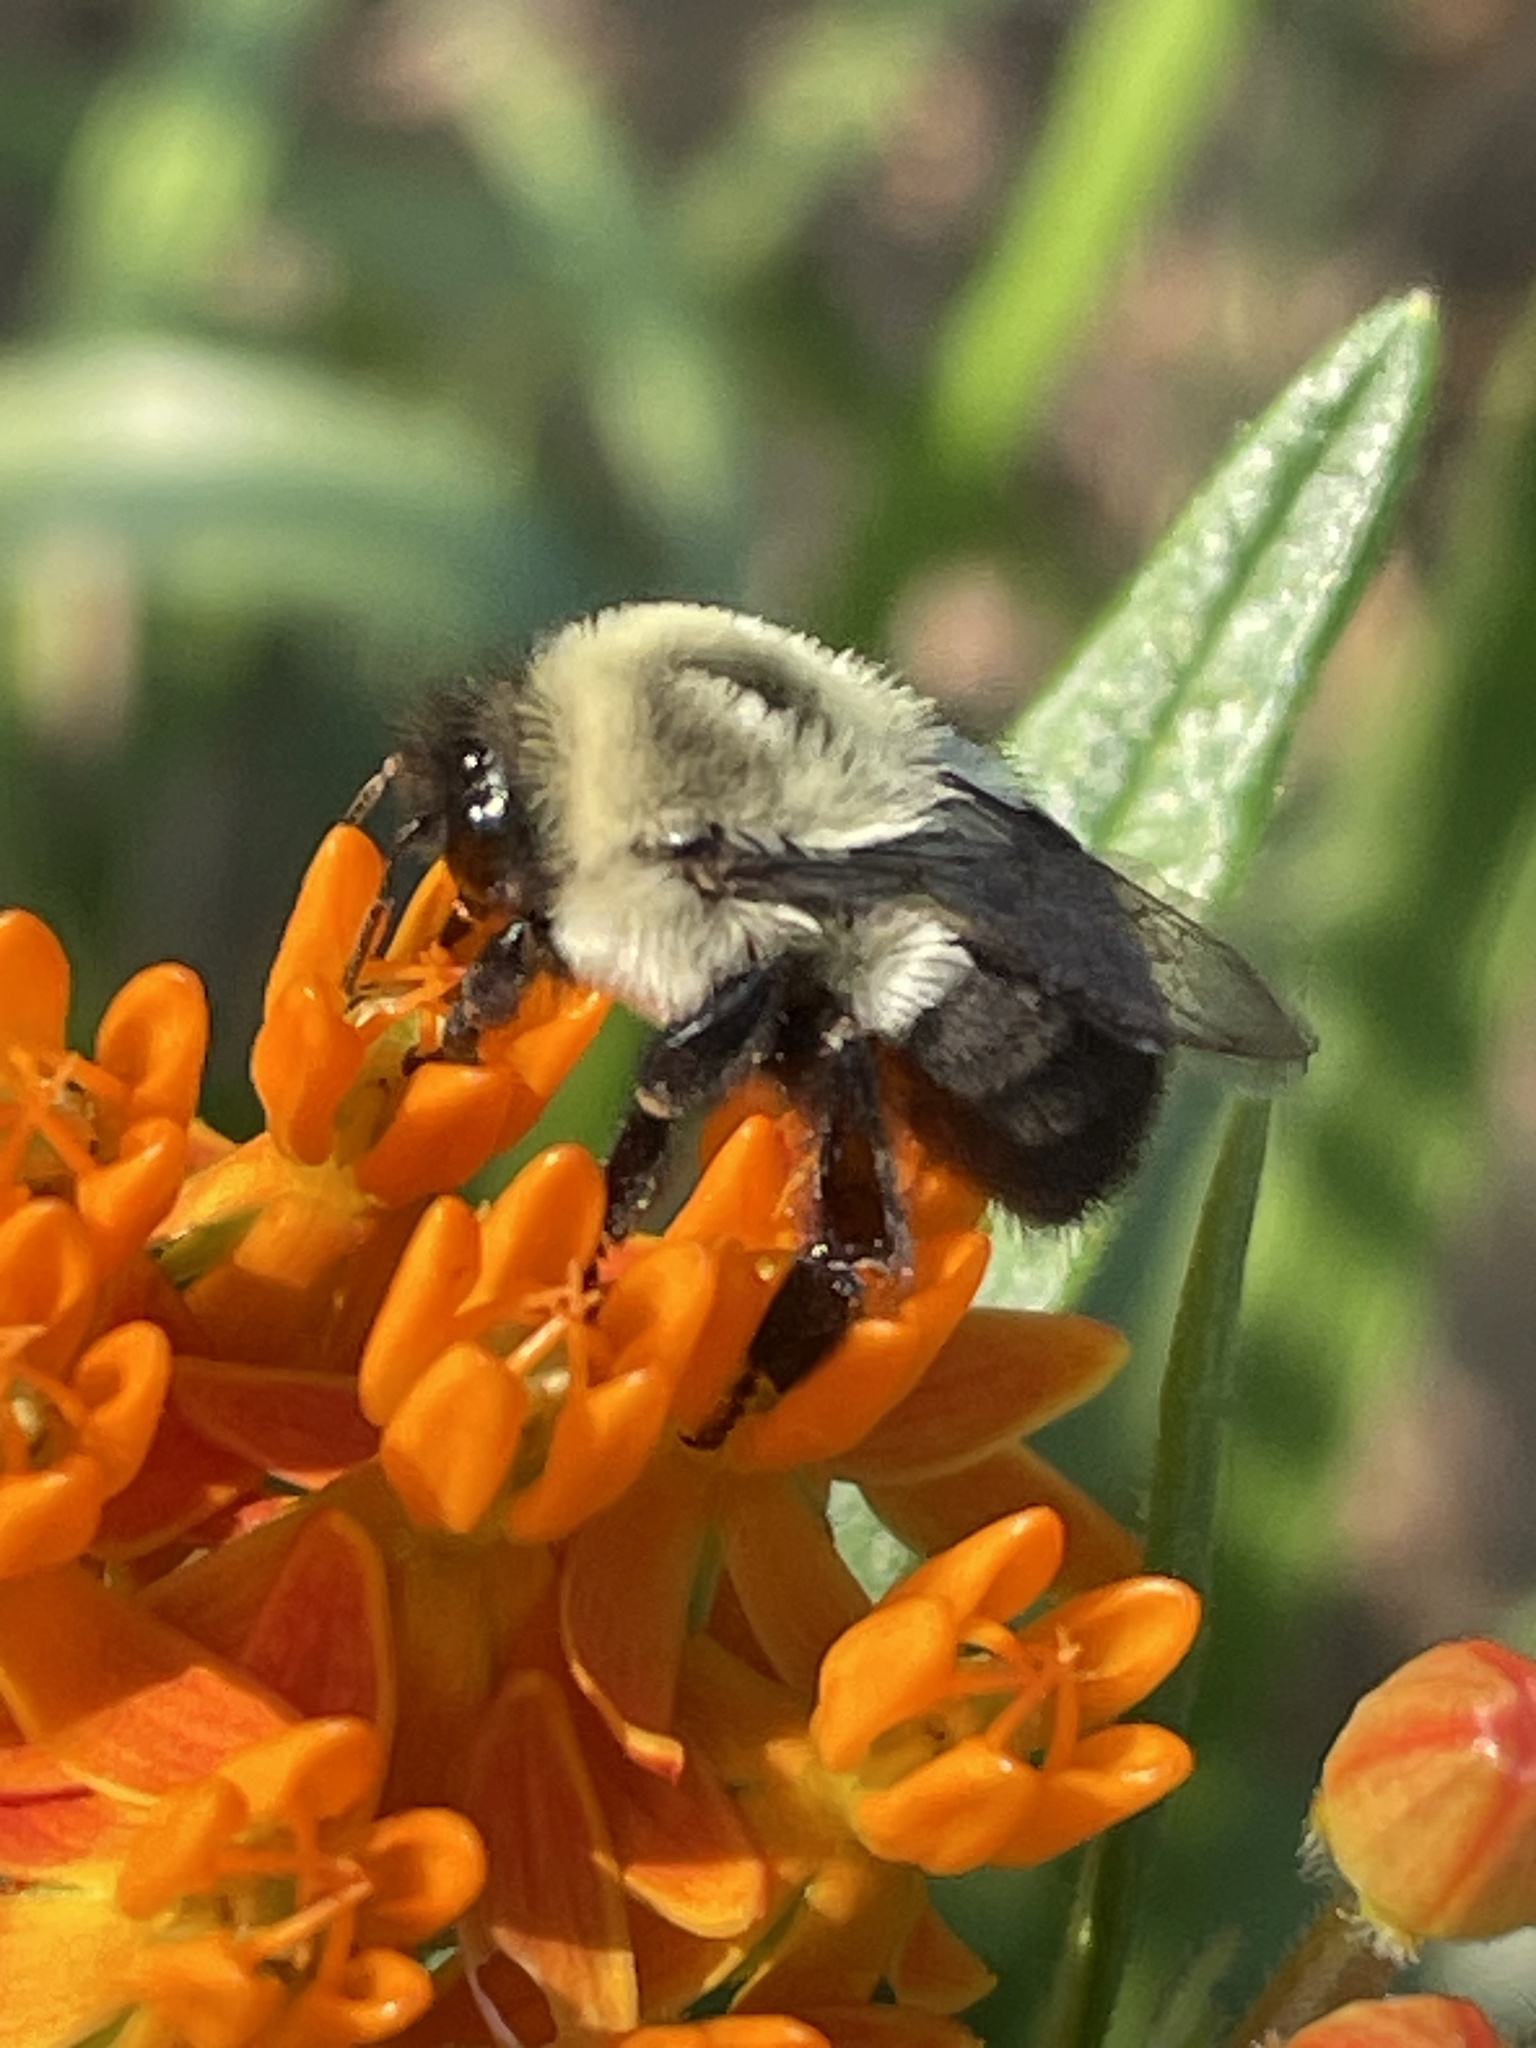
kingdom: Animalia
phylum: Arthropoda
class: Insecta
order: Hymenoptera
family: Apidae
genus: Bombus
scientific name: Bombus impatiens
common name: Common eastern bumble bee
